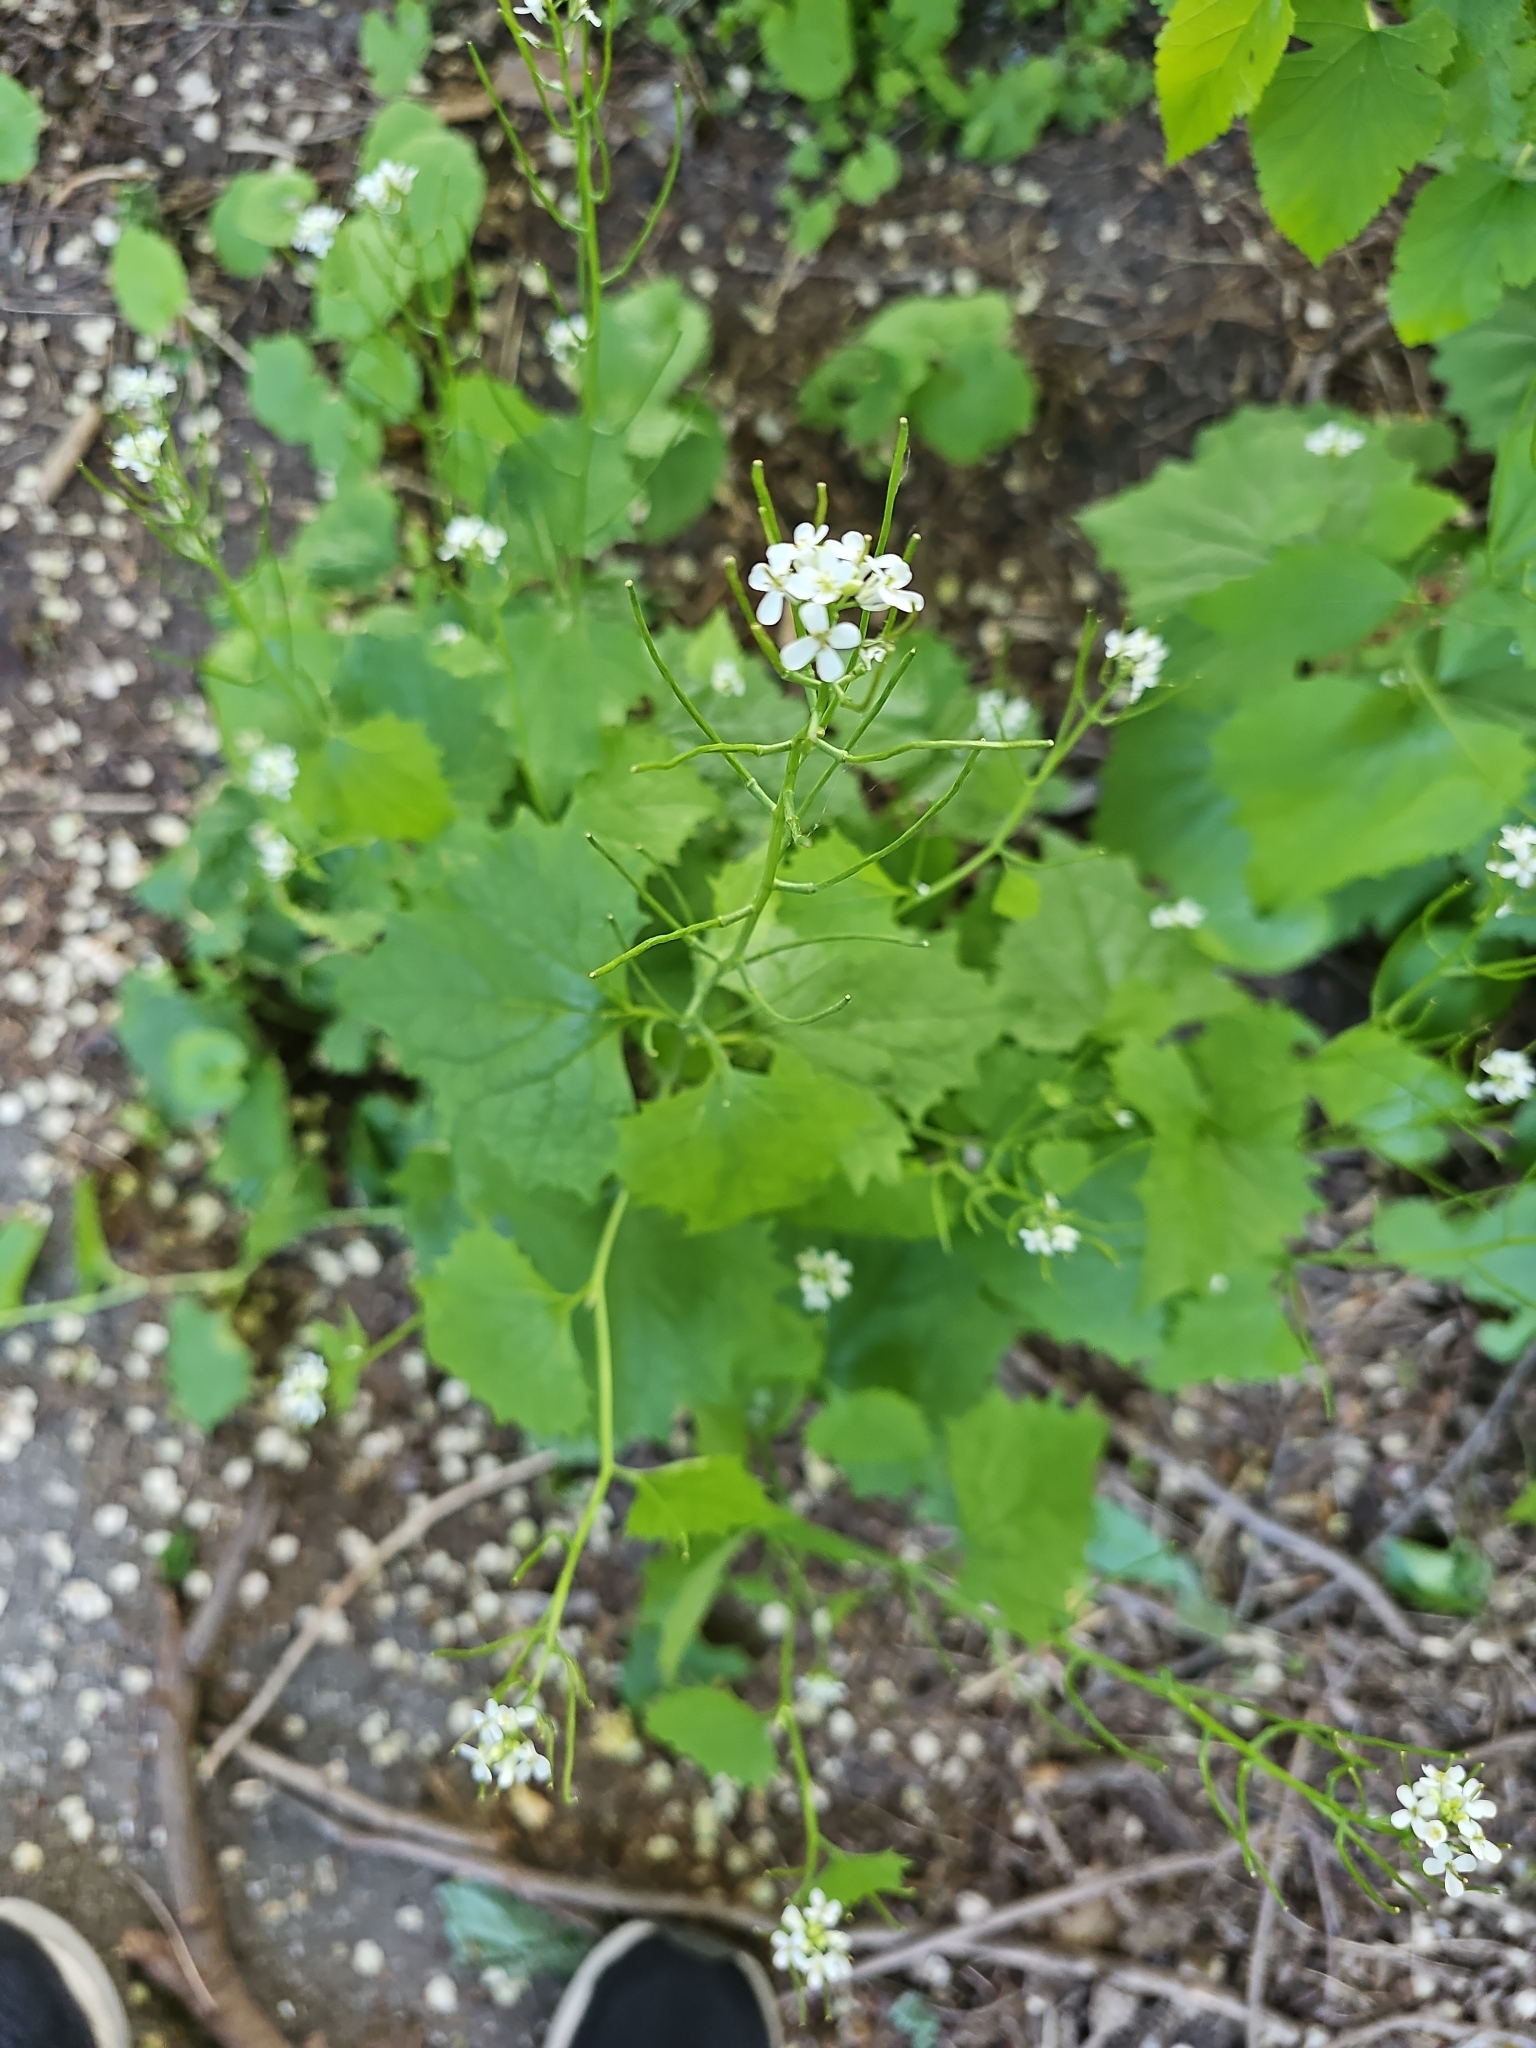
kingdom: Plantae
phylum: Tracheophyta
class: Magnoliopsida
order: Brassicales
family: Brassicaceae
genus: Alliaria
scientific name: Alliaria petiolata
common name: Garlic mustard
